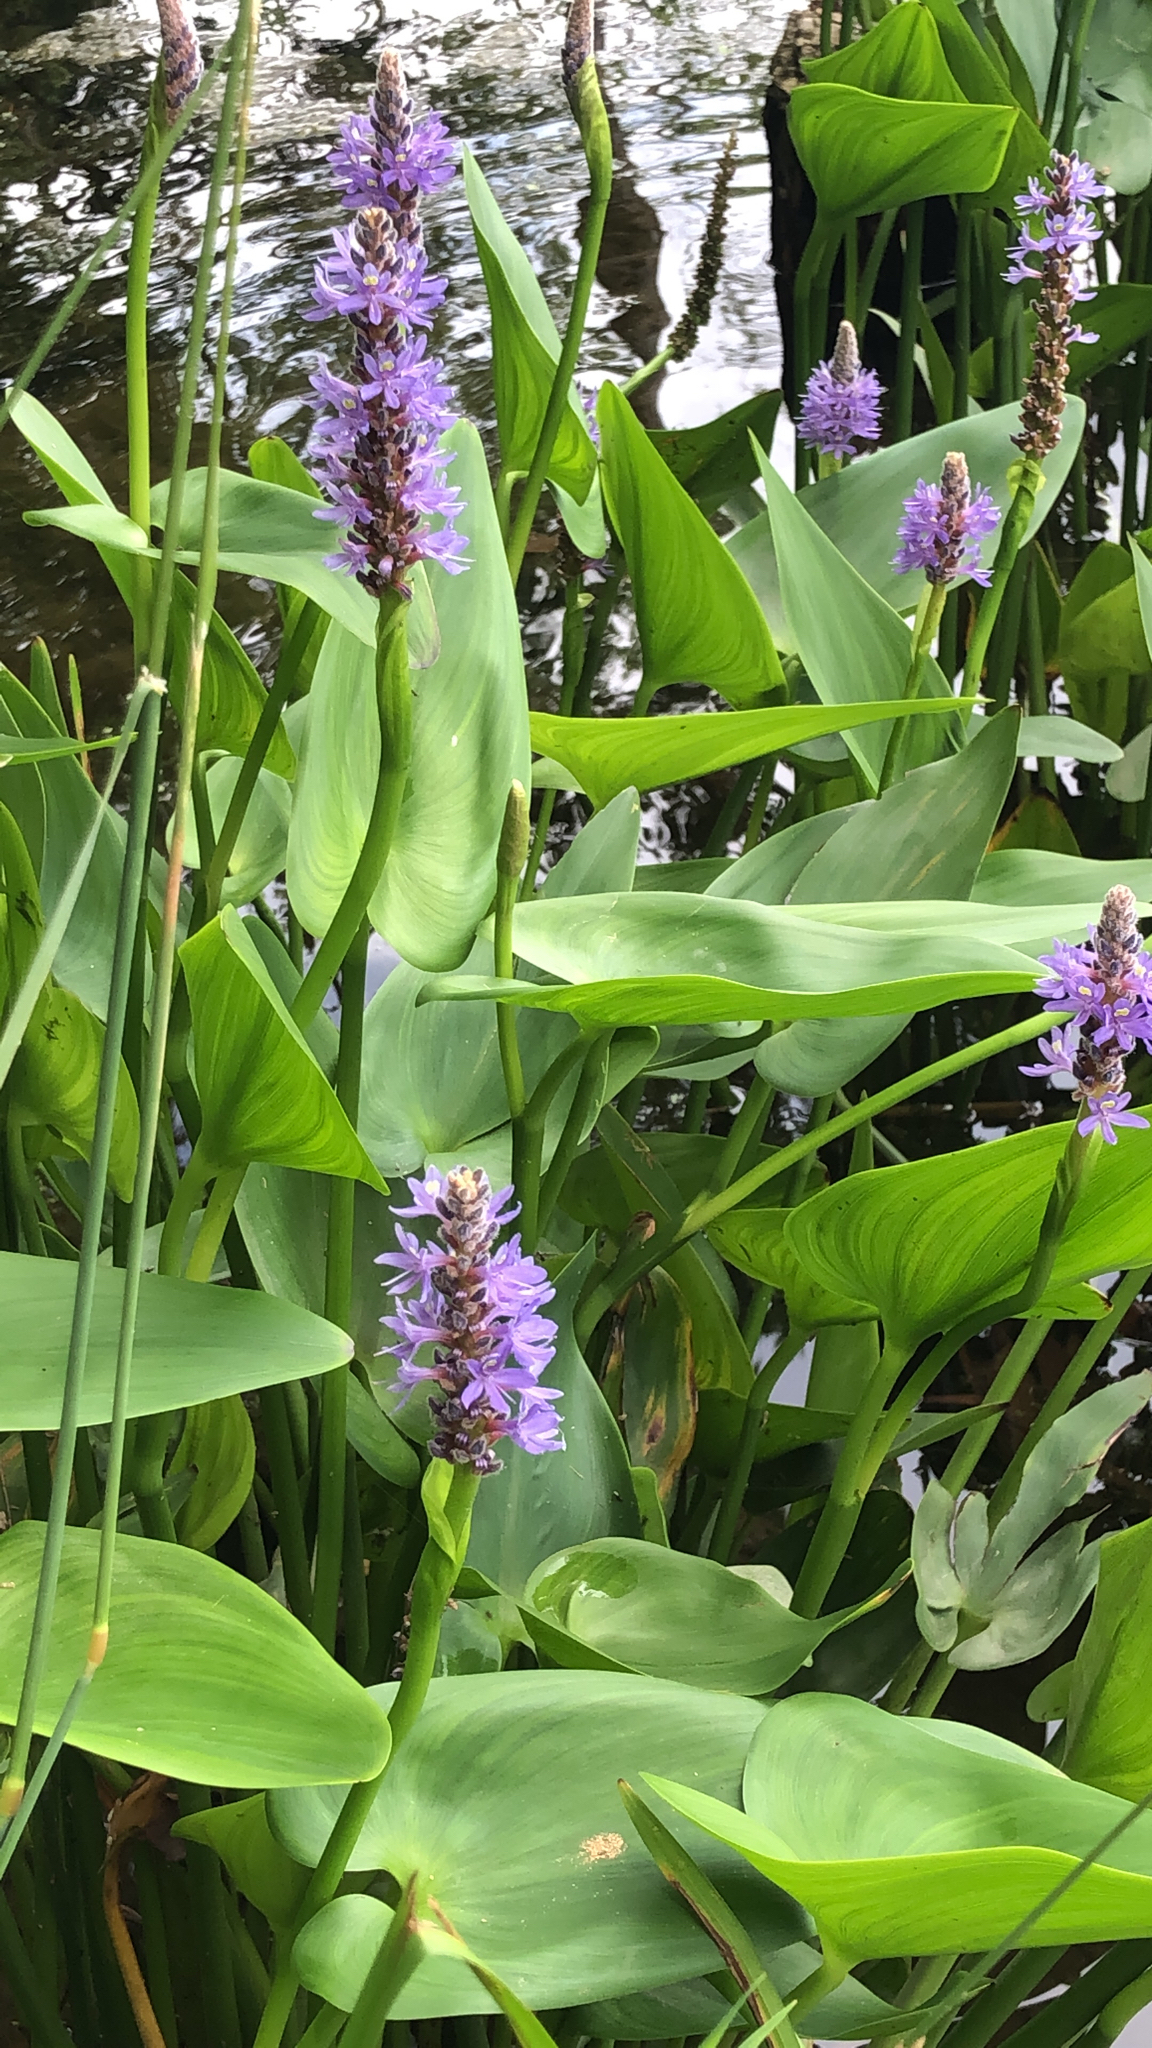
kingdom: Plantae
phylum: Tracheophyta
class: Liliopsida
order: Commelinales
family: Pontederiaceae
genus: Pontederia
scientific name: Pontederia cordata
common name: Pickerelweed
